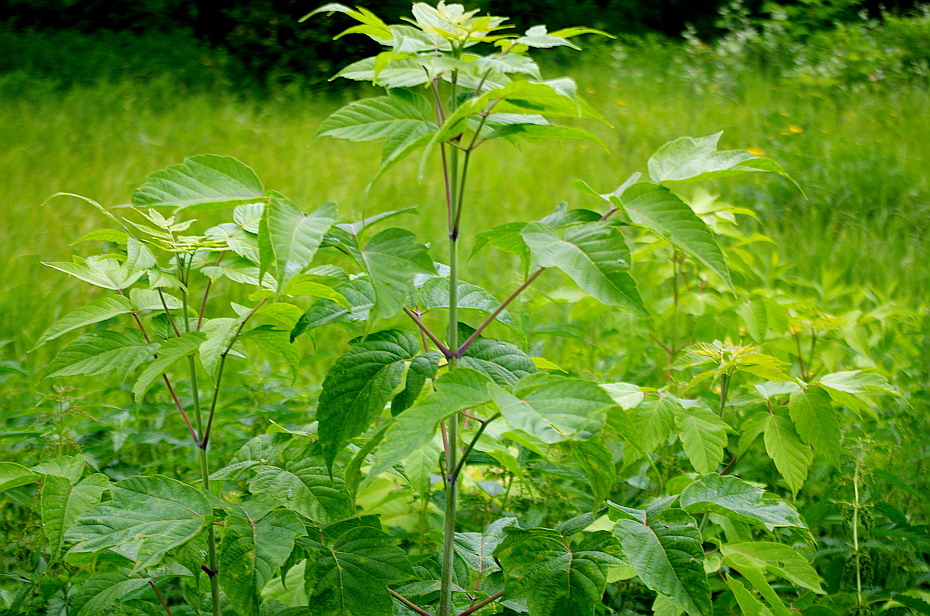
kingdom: Plantae
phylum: Tracheophyta
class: Magnoliopsida
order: Sapindales
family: Sapindaceae
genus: Acer
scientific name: Acer negundo
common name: Ashleaf maple
